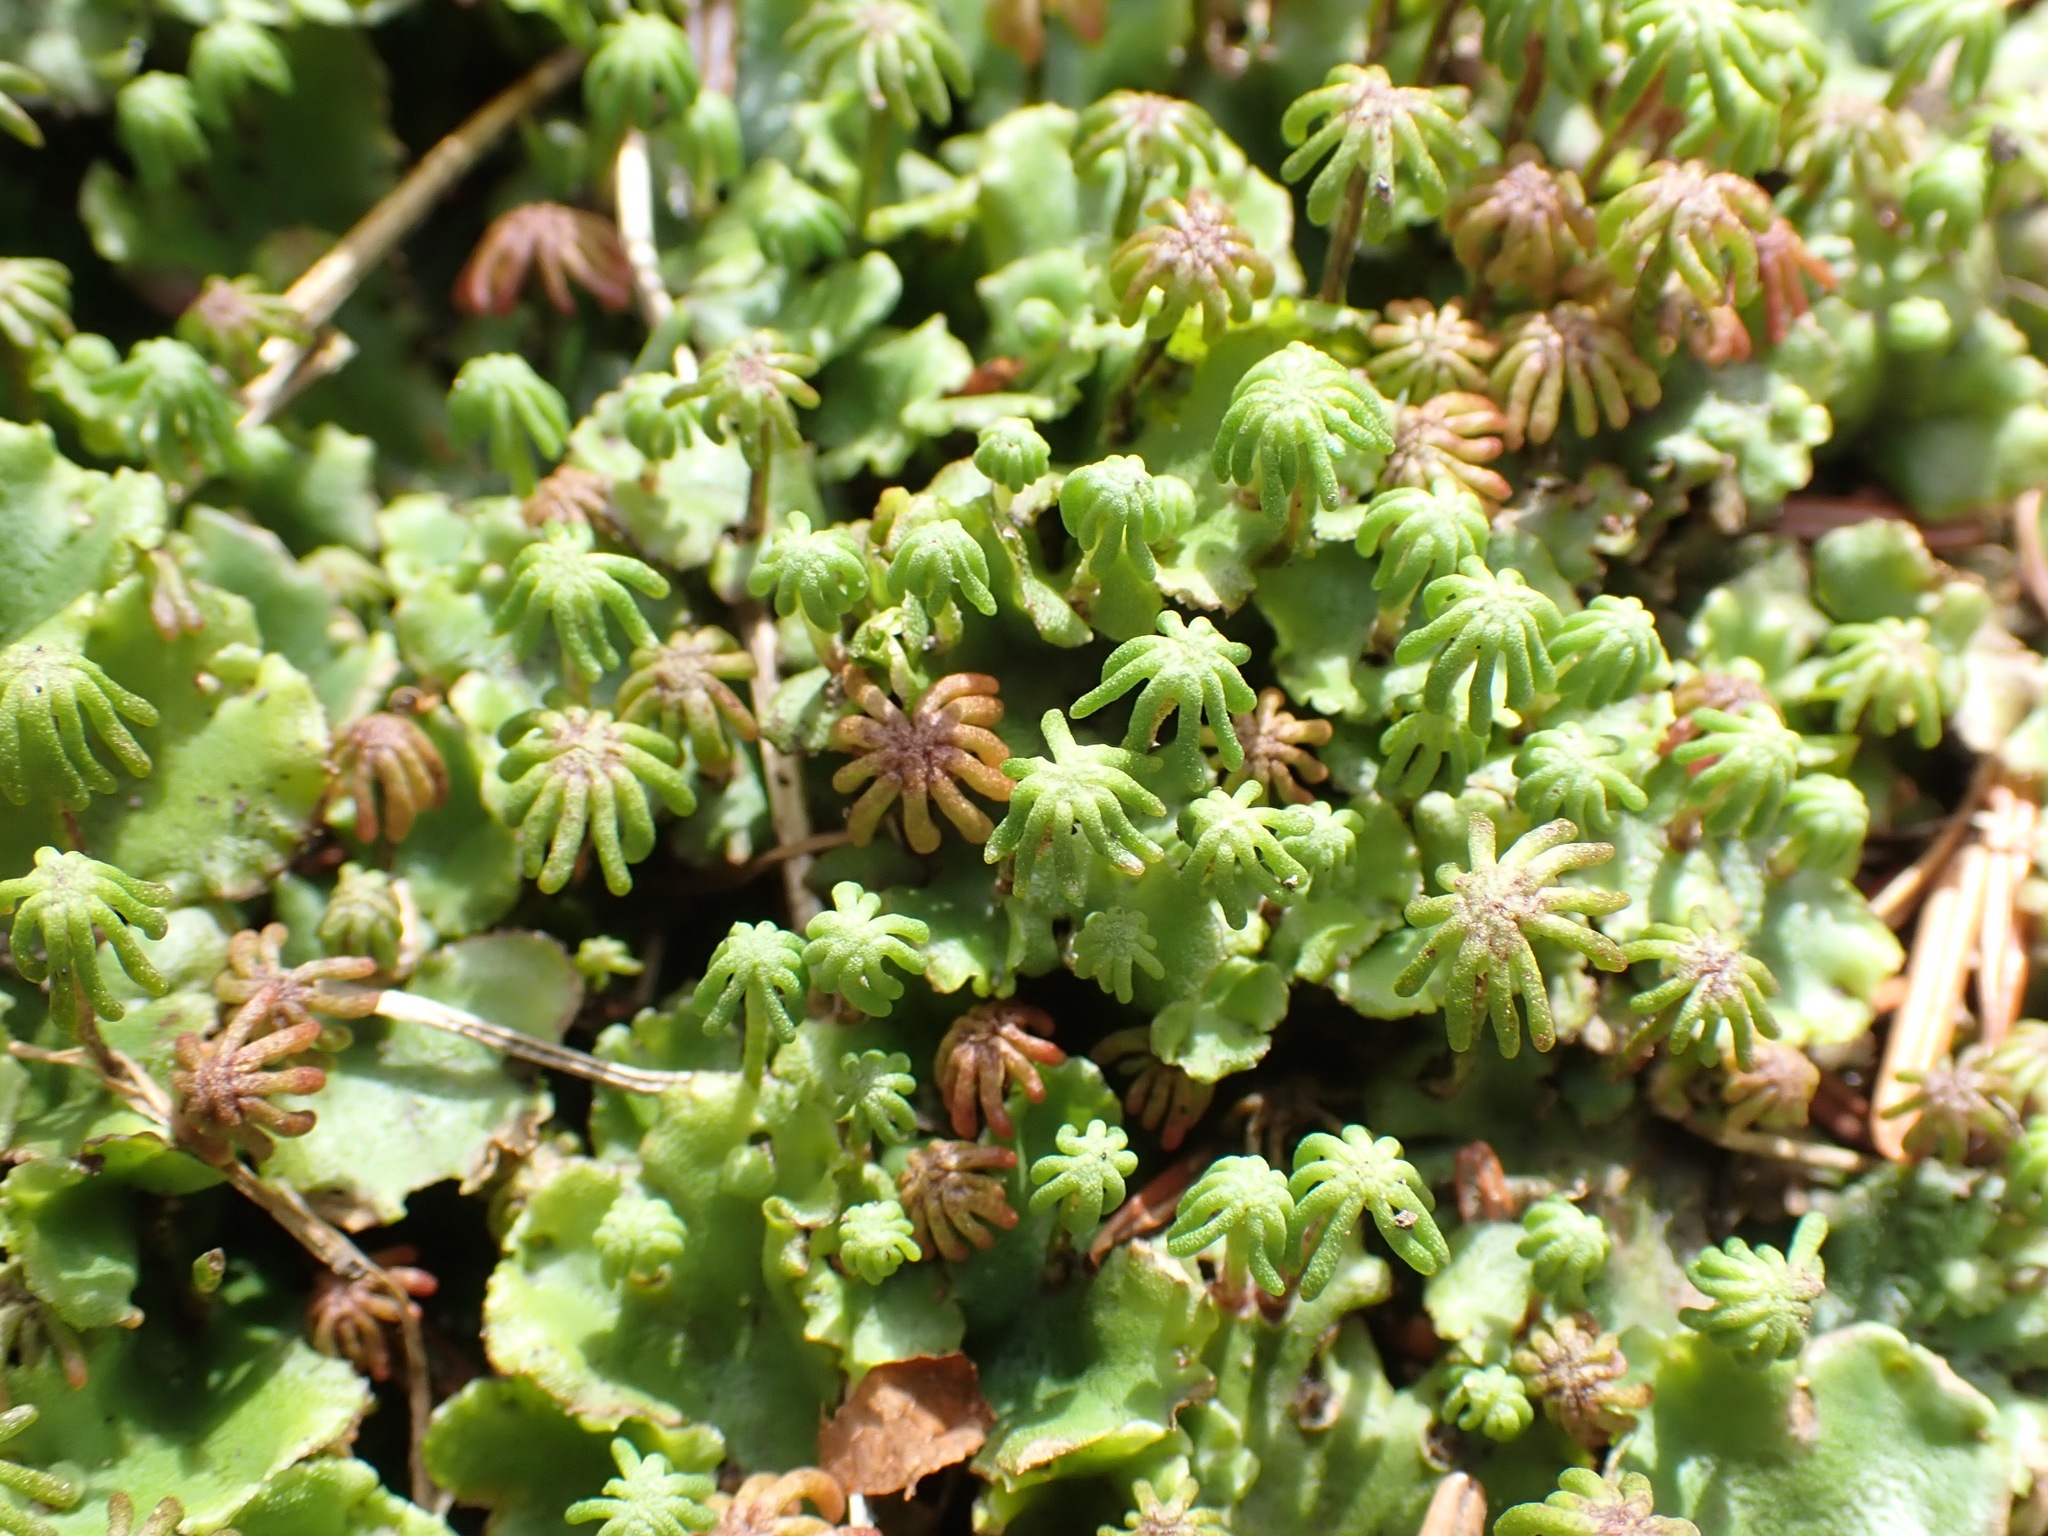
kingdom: Plantae
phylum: Marchantiophyta
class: Marchantiopsida
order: Marchantiales
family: Marchantiaceae
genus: Marchantia
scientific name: Marchantia polymorpha
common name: Common liverwort
